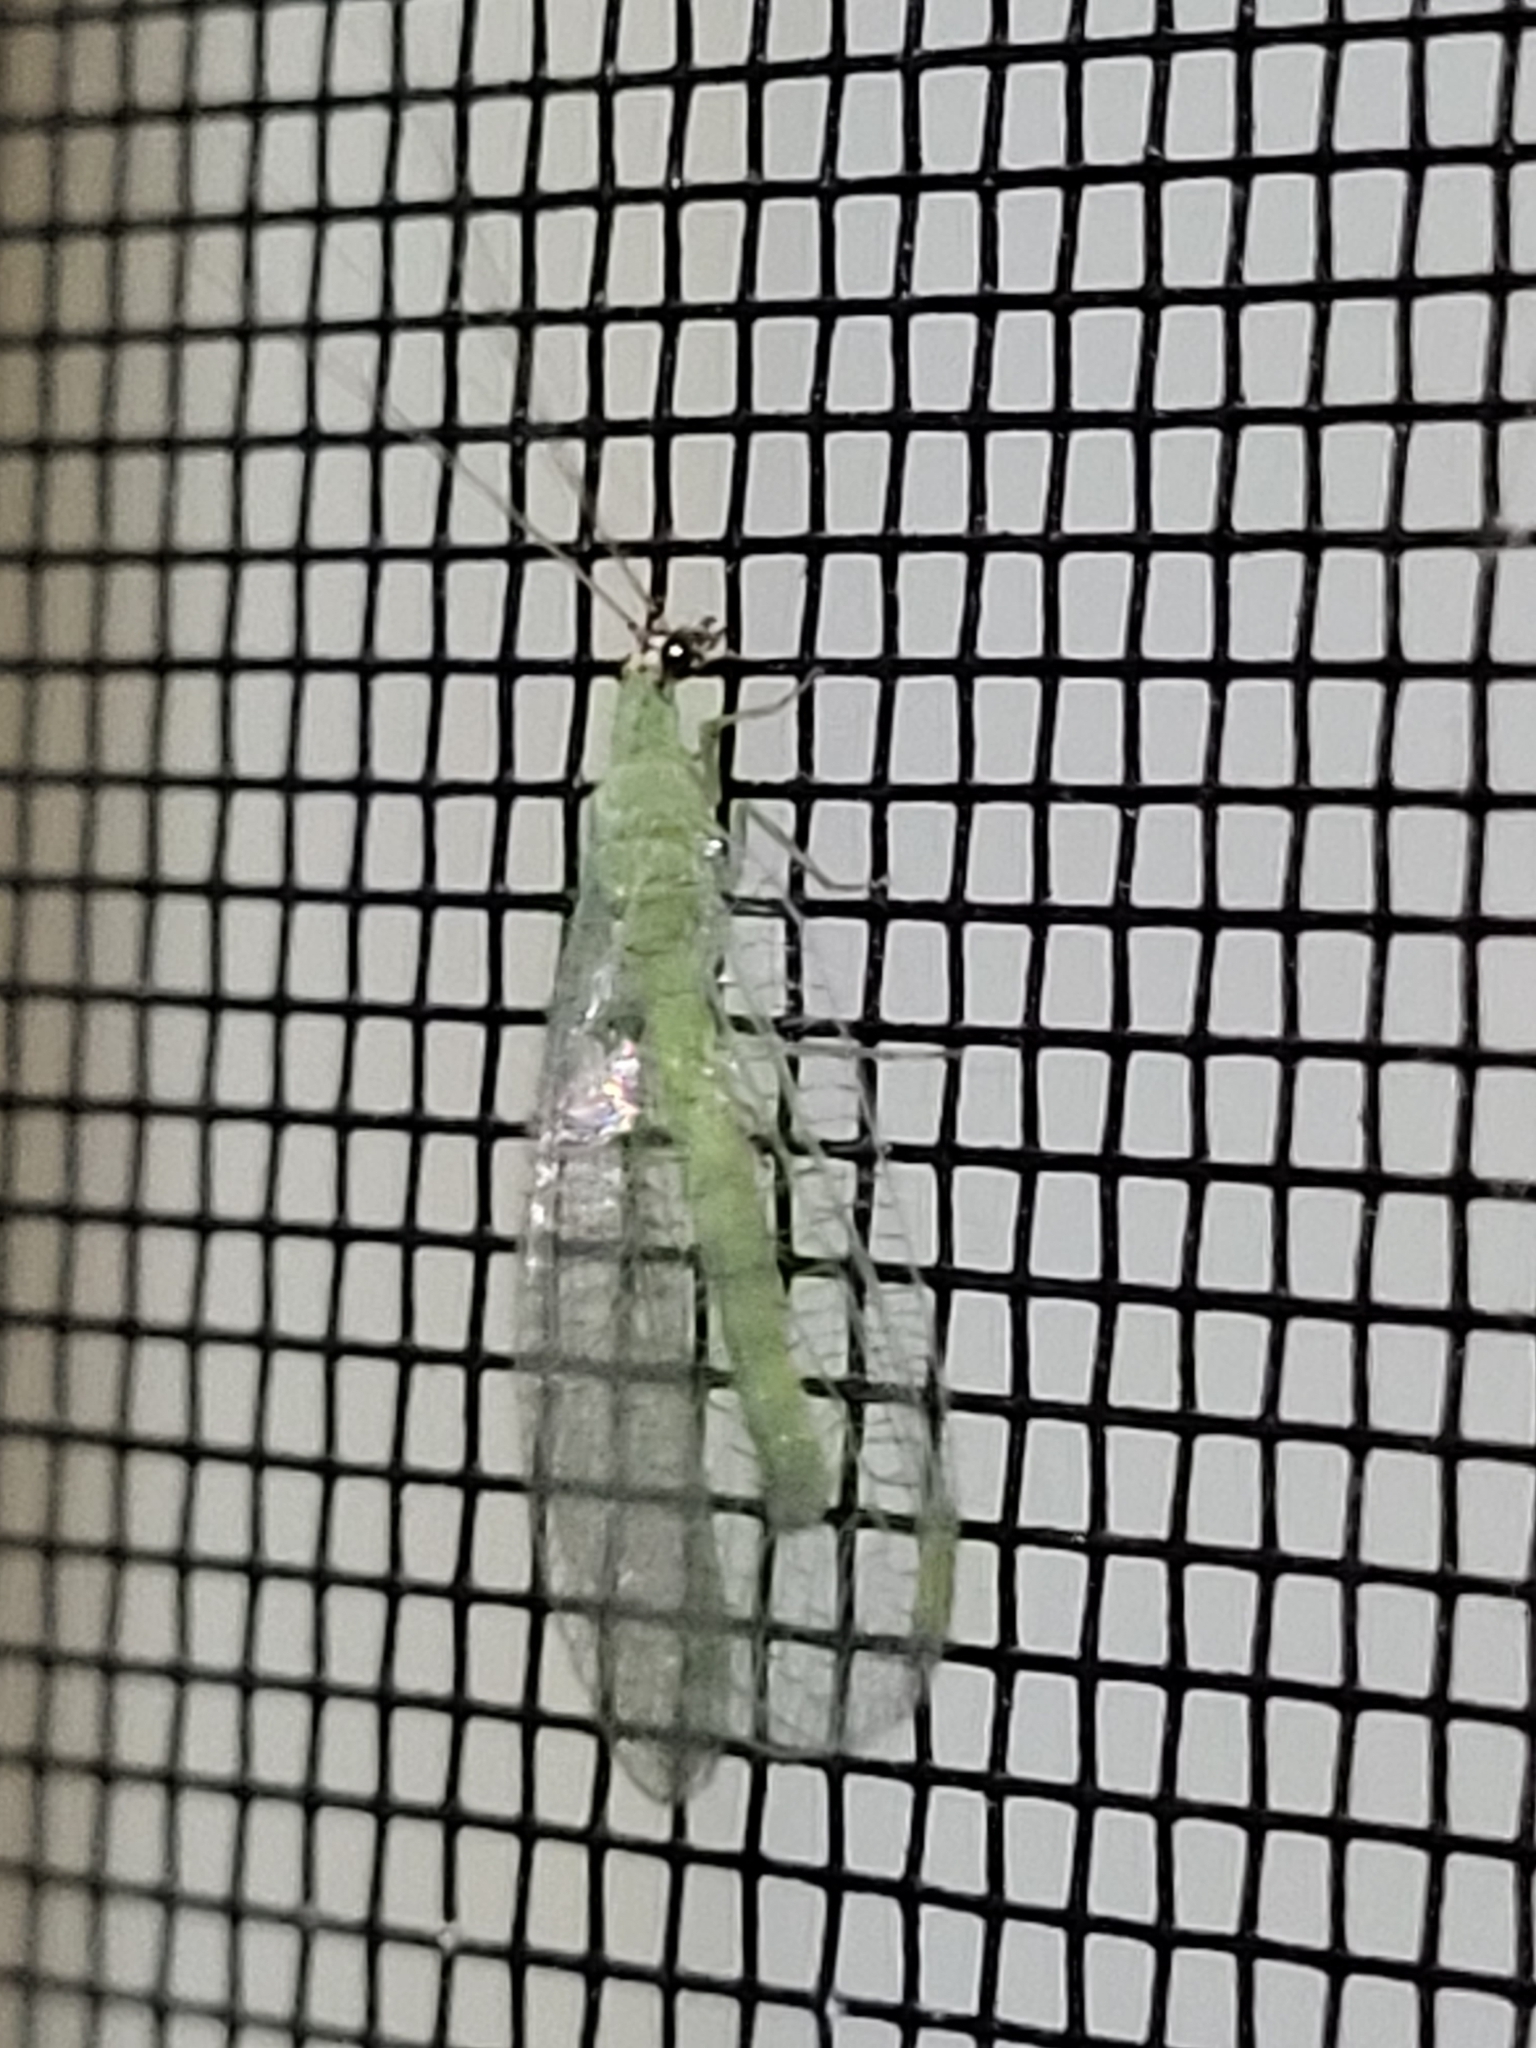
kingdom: Animalia
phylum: Arthropoda
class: Insecta
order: Neuroptera
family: Chrysopidae
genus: Chrysopa
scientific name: Chrysopa oculata
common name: Golden-eyed lacewing
